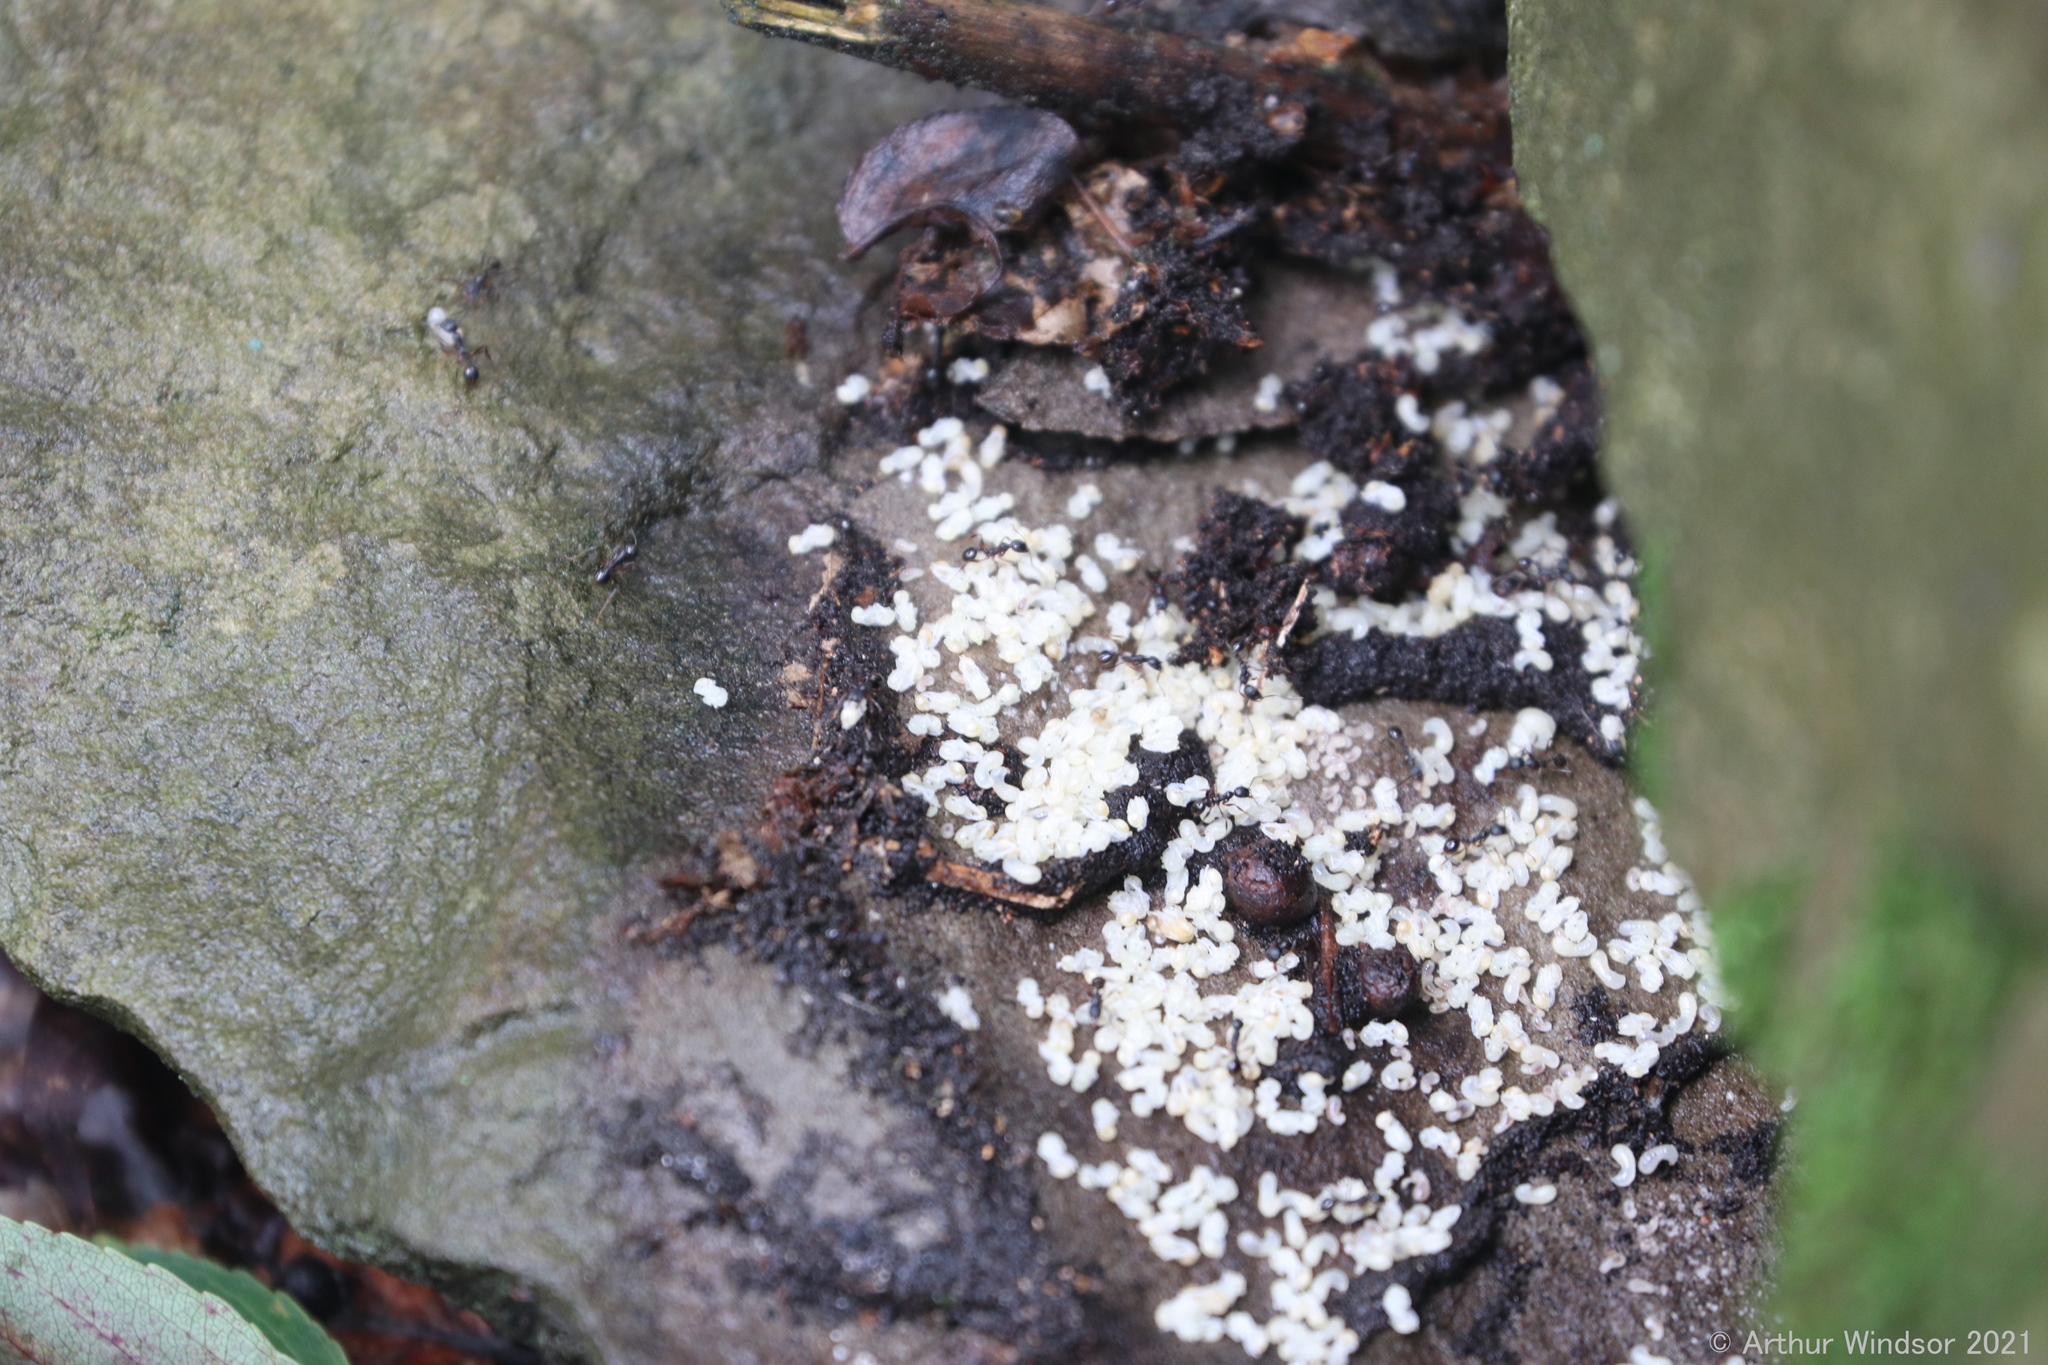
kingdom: Animalia
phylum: Arthropoda
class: Insecta
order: Hymenoptera
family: Formicidae
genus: Aphaenogaster
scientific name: Aphaenogaster picea
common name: Pitch-black collared ant
